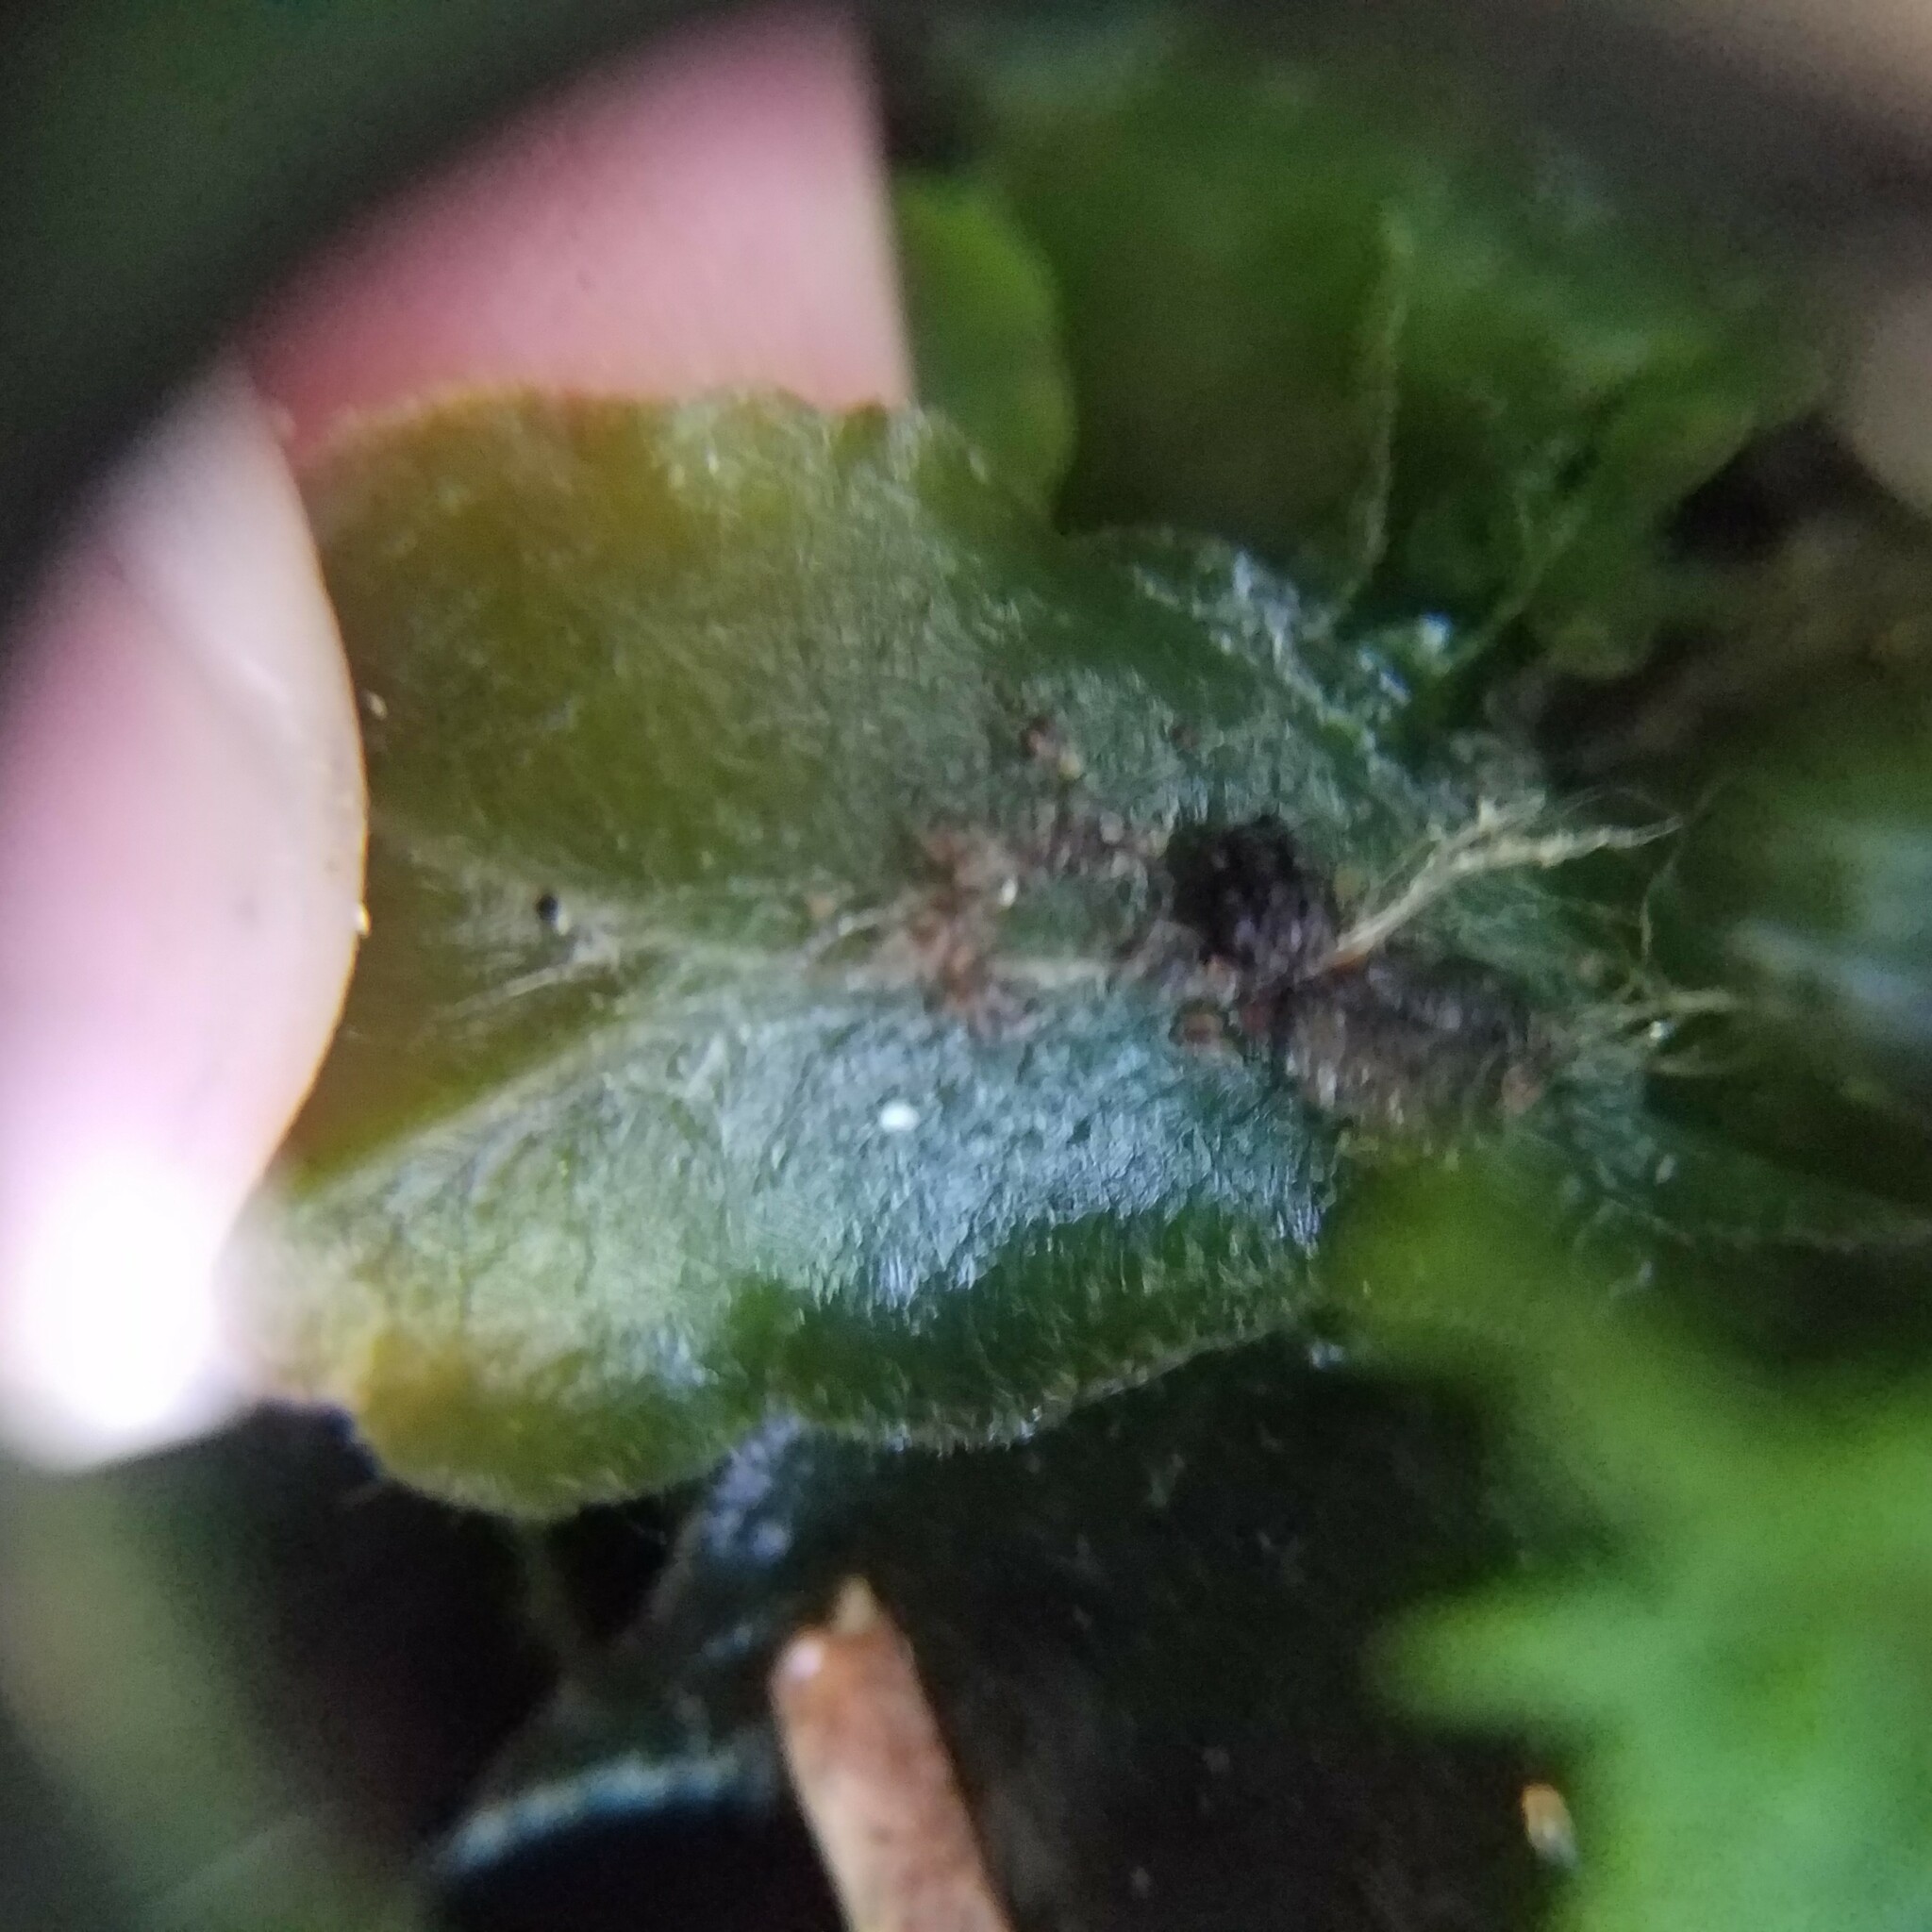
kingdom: Plantae
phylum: Marchantiophyta
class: Marchantiopsida
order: Marchantiales
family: Dumortieraceae
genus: Dumortiera
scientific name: Dumortiera hirsuta
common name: Dumortier's liverwort
